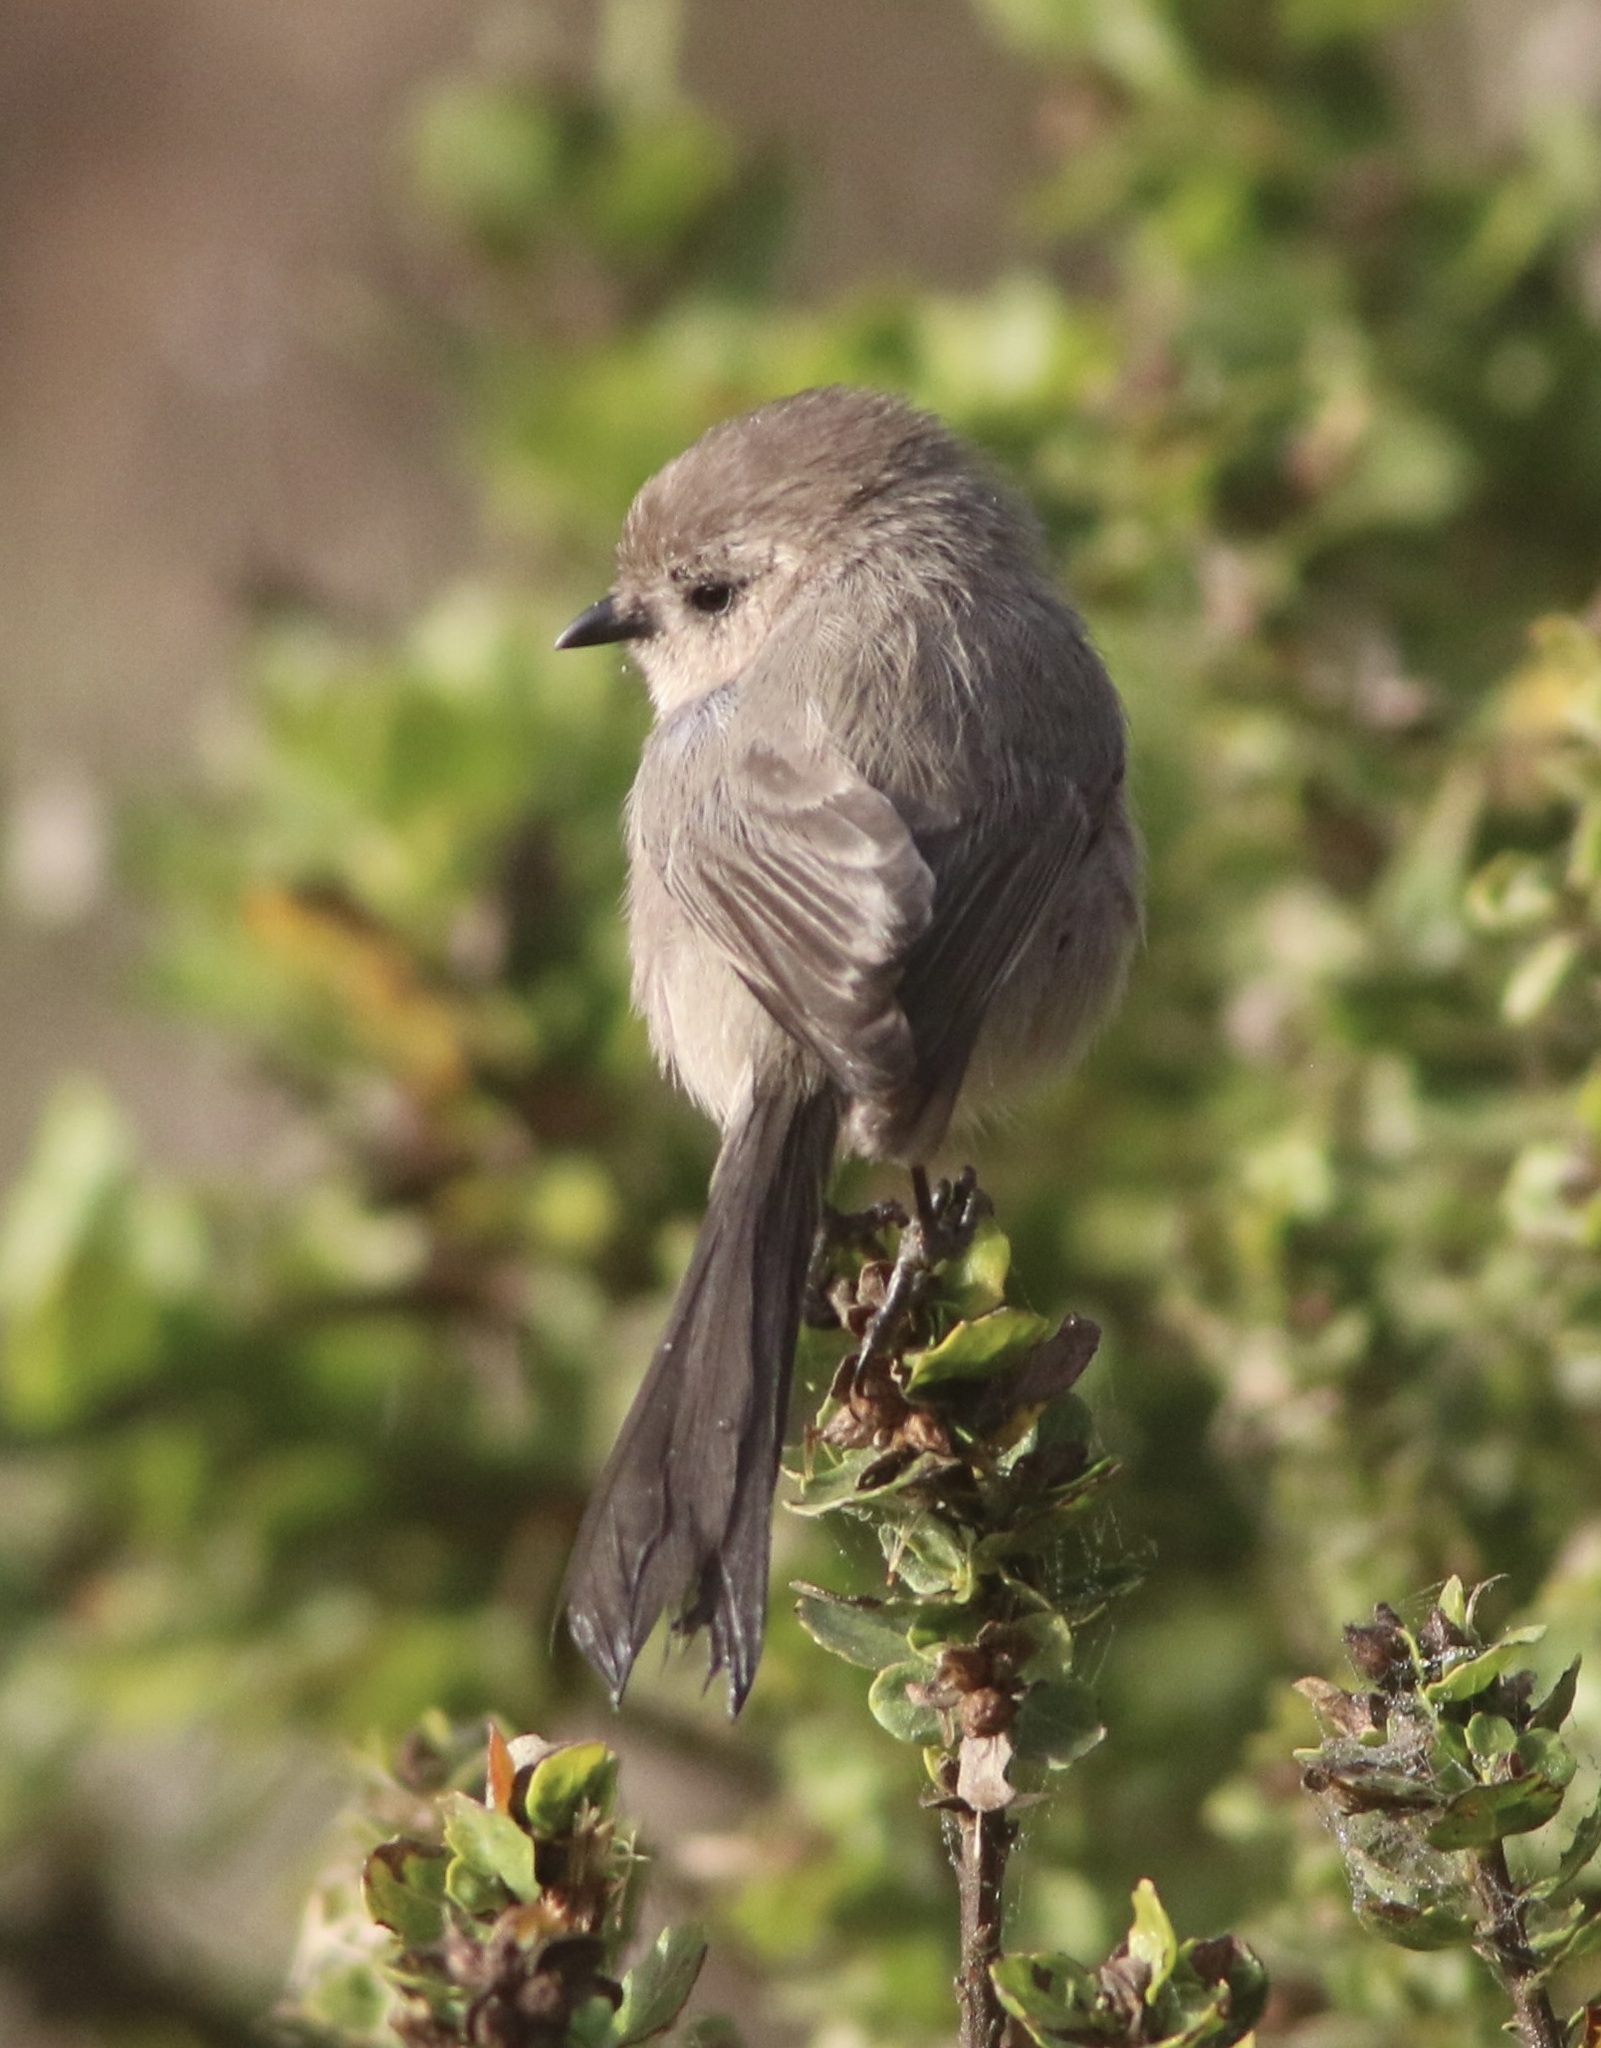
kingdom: Animalia
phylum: Chordata
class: Aves
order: Passeriformes
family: Aegithalidae
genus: Psaltriparus
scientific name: Psaltriparus minimus
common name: American bushtit
